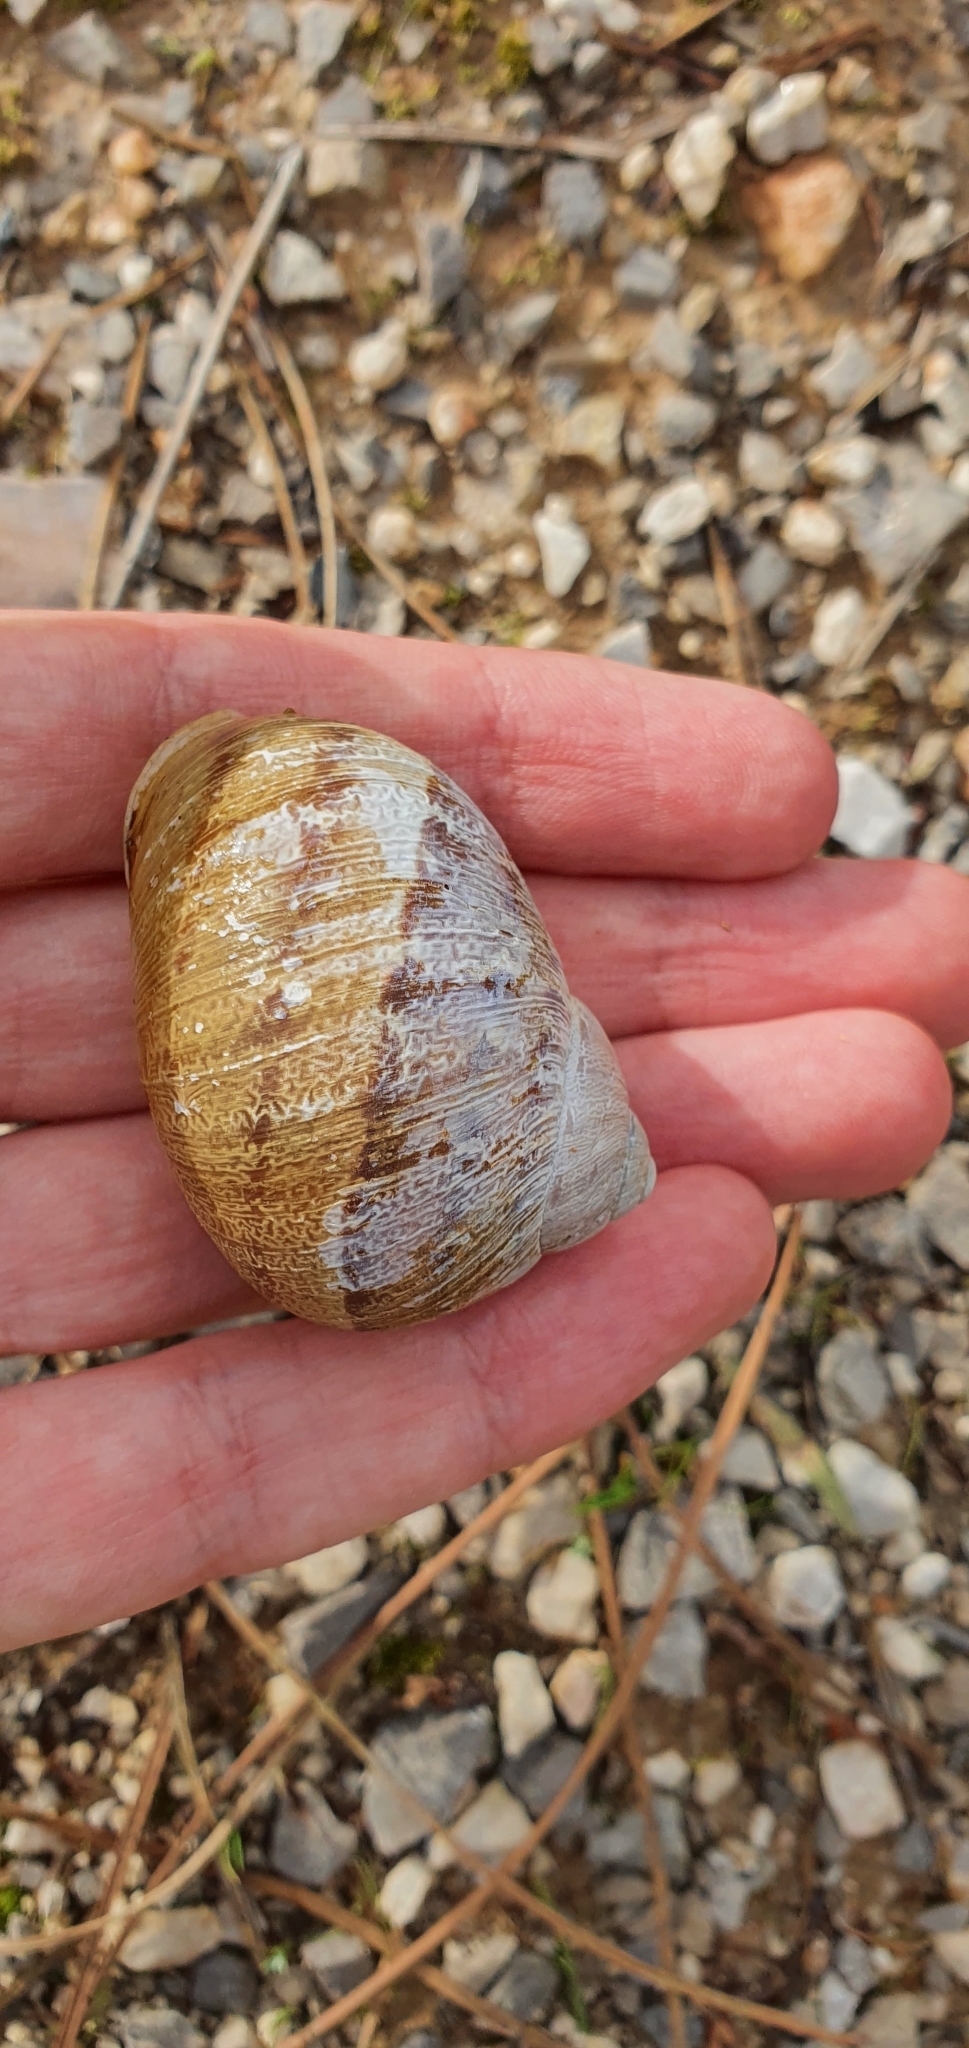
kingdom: Animalia
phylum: Mollusca
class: Gastropoda
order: Stylommatophora
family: Helicidae
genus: Cornu
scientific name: Cornu aspersum
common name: Brown garden snail
